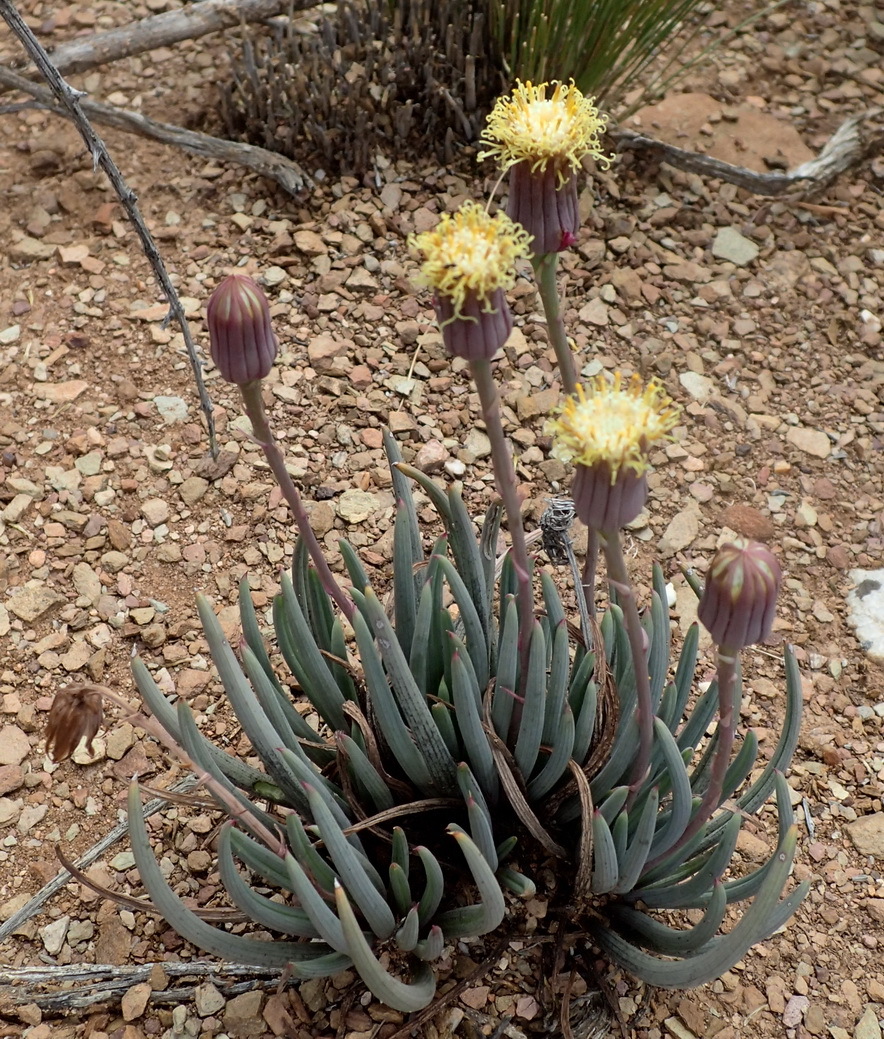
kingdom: Plantae
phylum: Tracheophyta
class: Magnoliopsida
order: Asterales
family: Asteraceae
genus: Curio
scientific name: Curio acaulis
